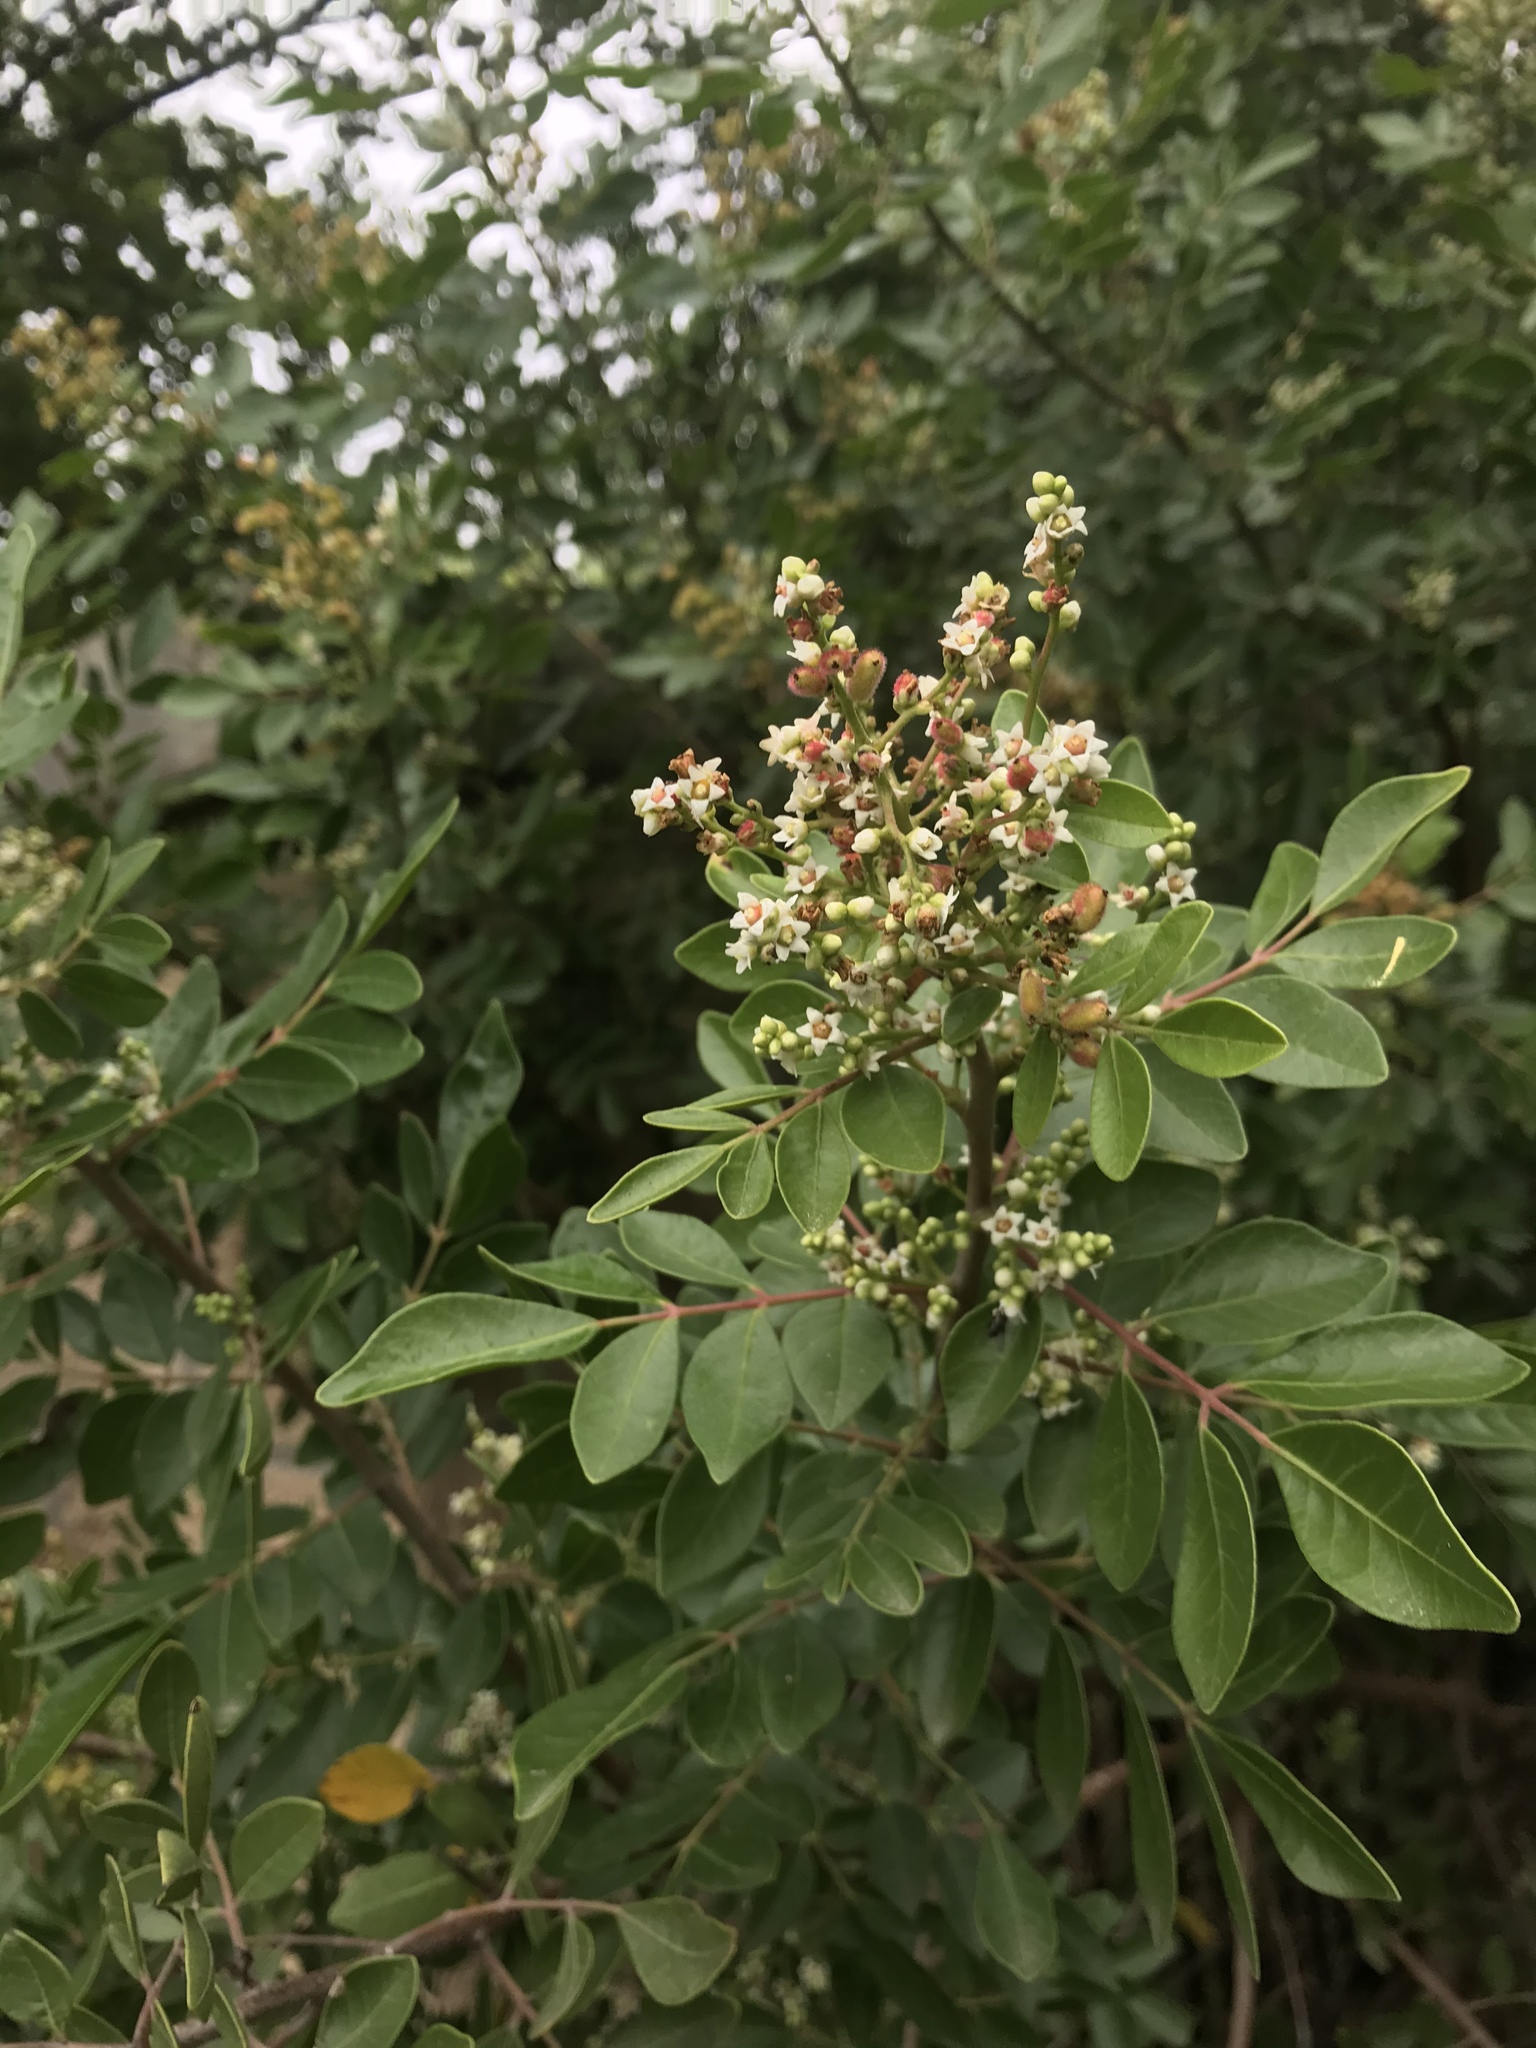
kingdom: Plantae
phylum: Tracheophyta
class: Magnoliopsida
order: Sapindales
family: Anacardiaceae
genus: Rhus
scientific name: Rhus virens
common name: Evergreen sumac
